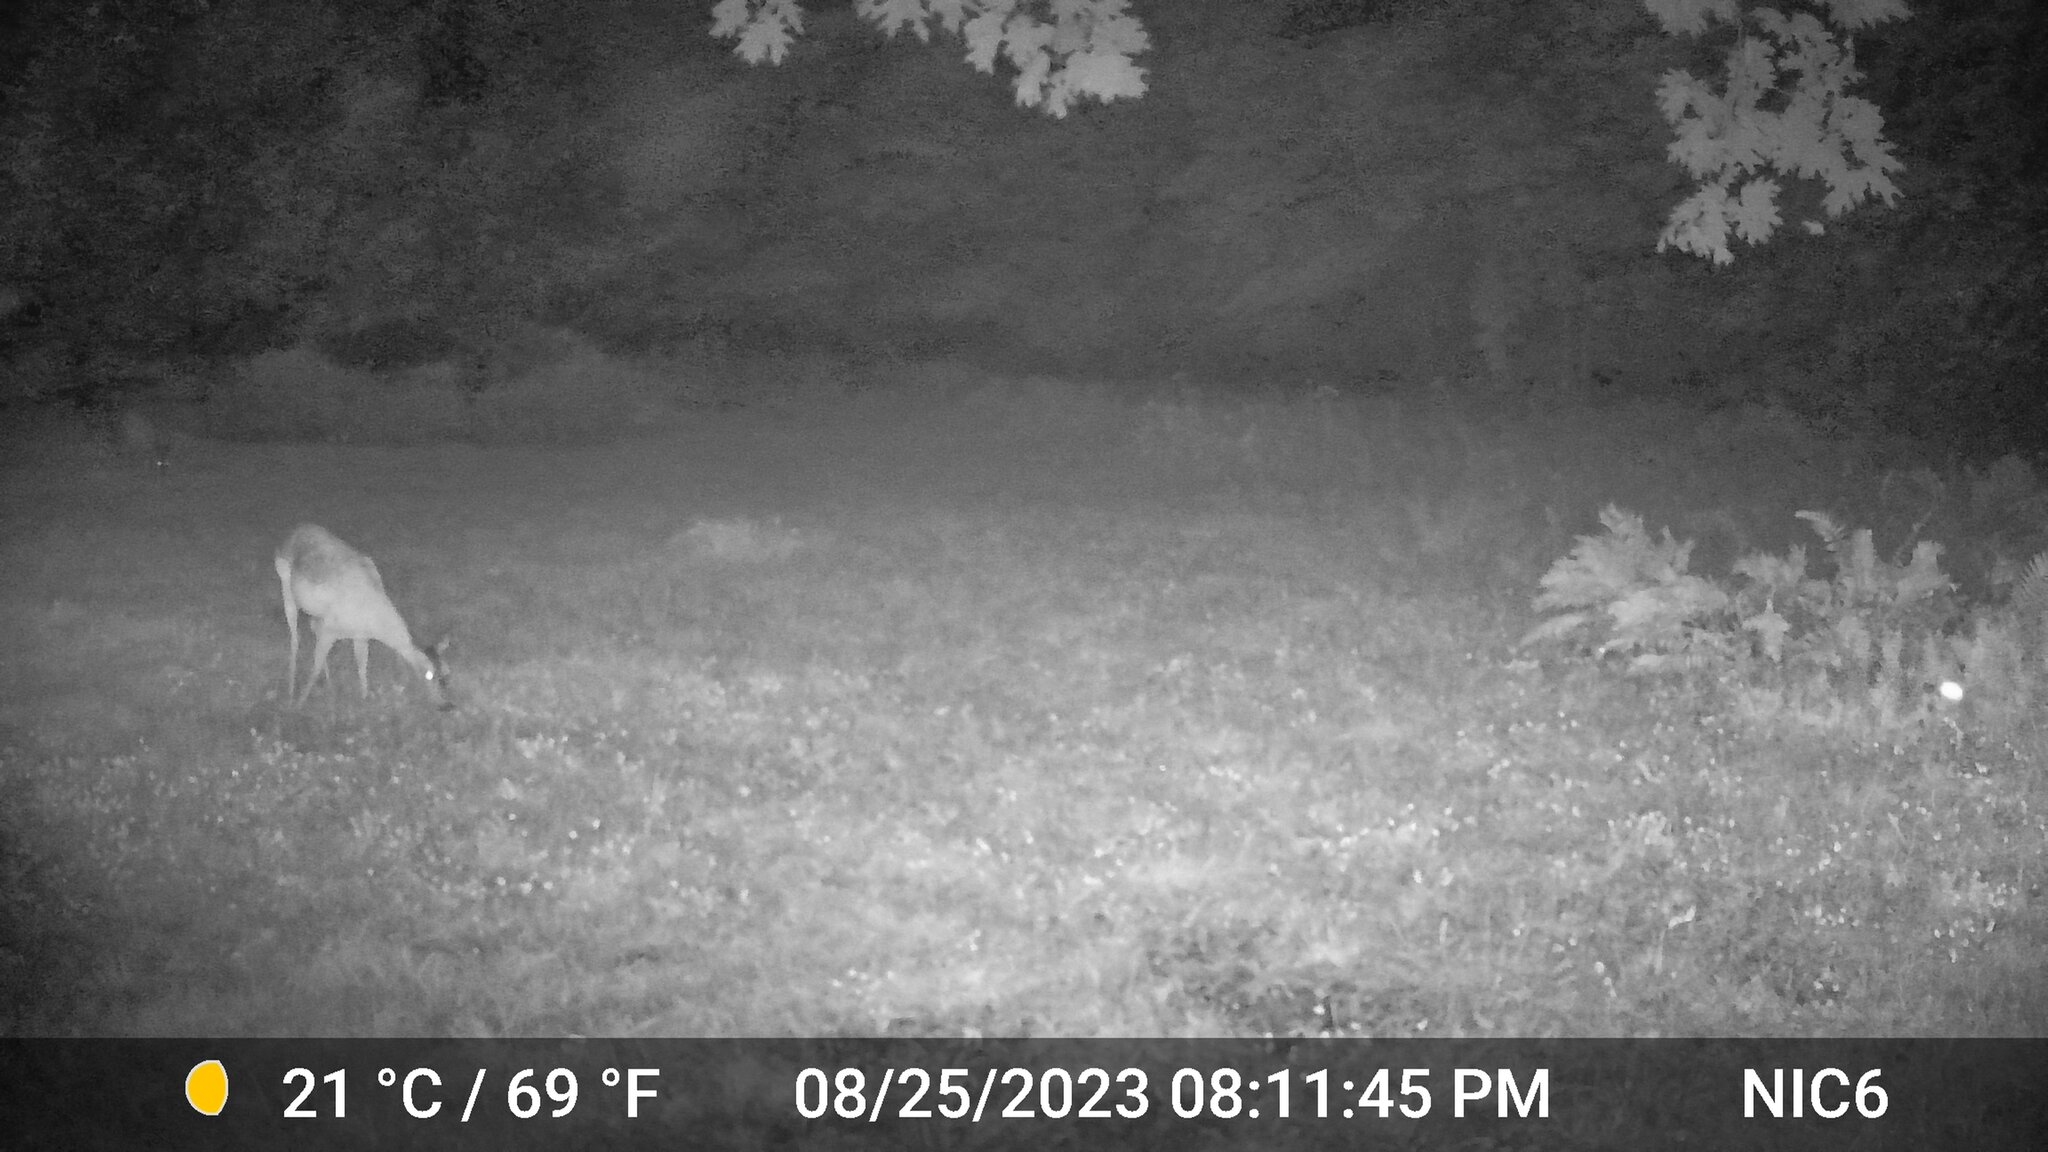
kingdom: Animalia
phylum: Chordata
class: Mammalia
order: Artiodactyla
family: Cervidae
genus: Odocoileus
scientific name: Odocoileus virginianus
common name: White-tailed deer
